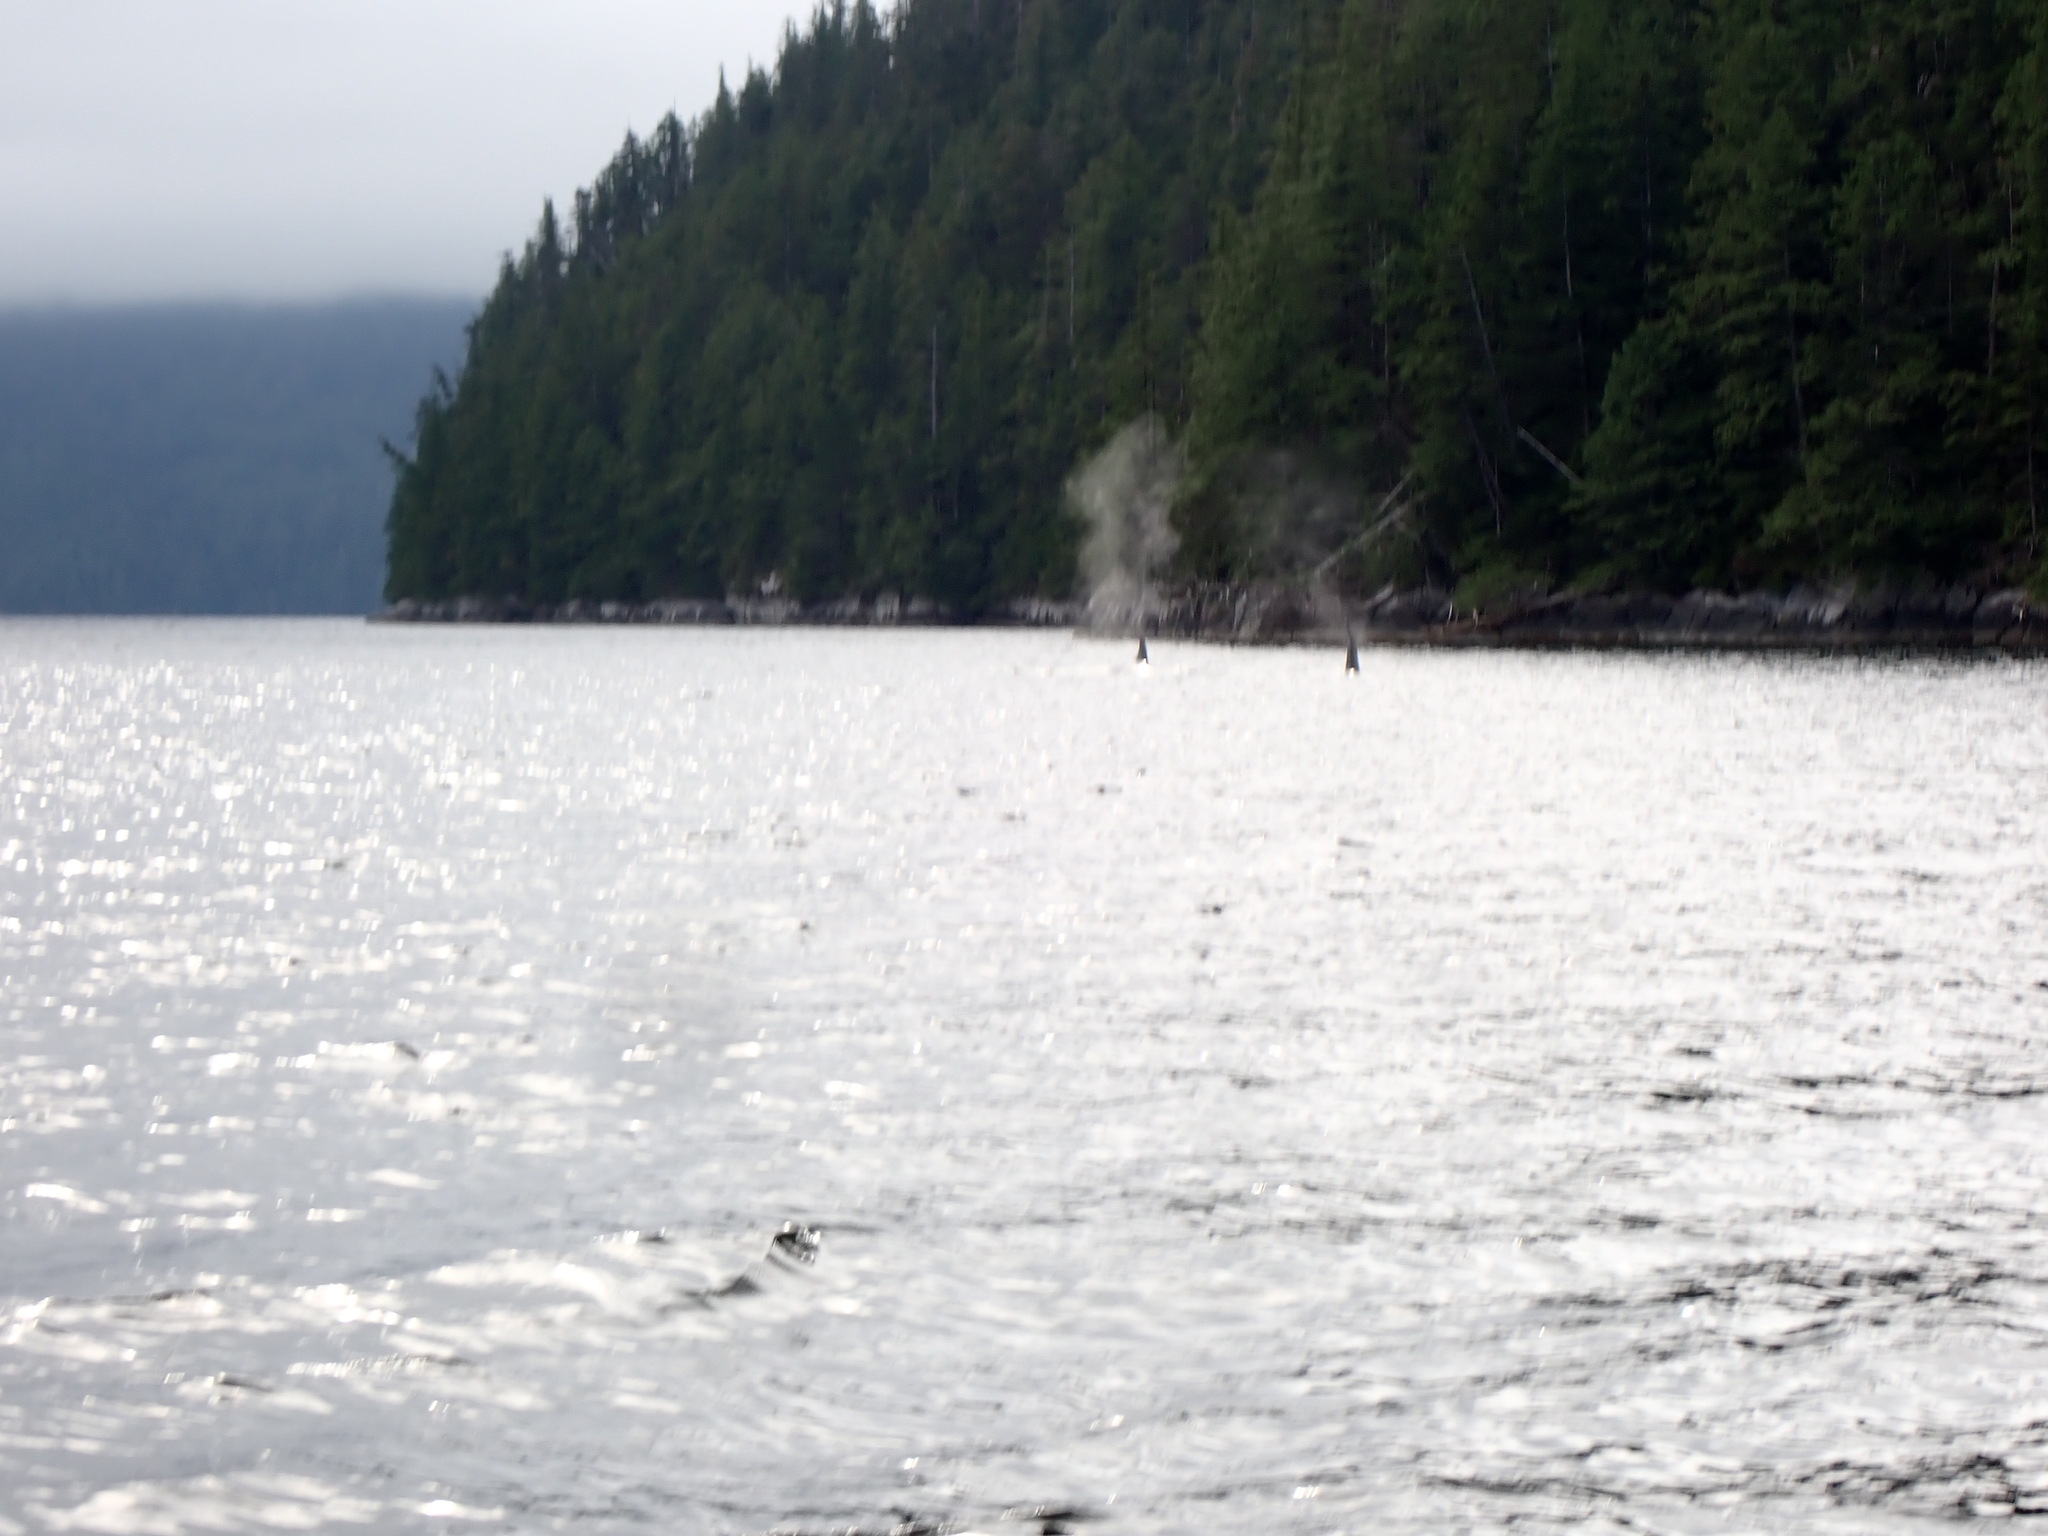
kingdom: Animalia
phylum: Chordata
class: Mammalia
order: Cetacea
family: Delphinidae
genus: Orcinus
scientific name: Orcinus orca
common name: Killer whale
